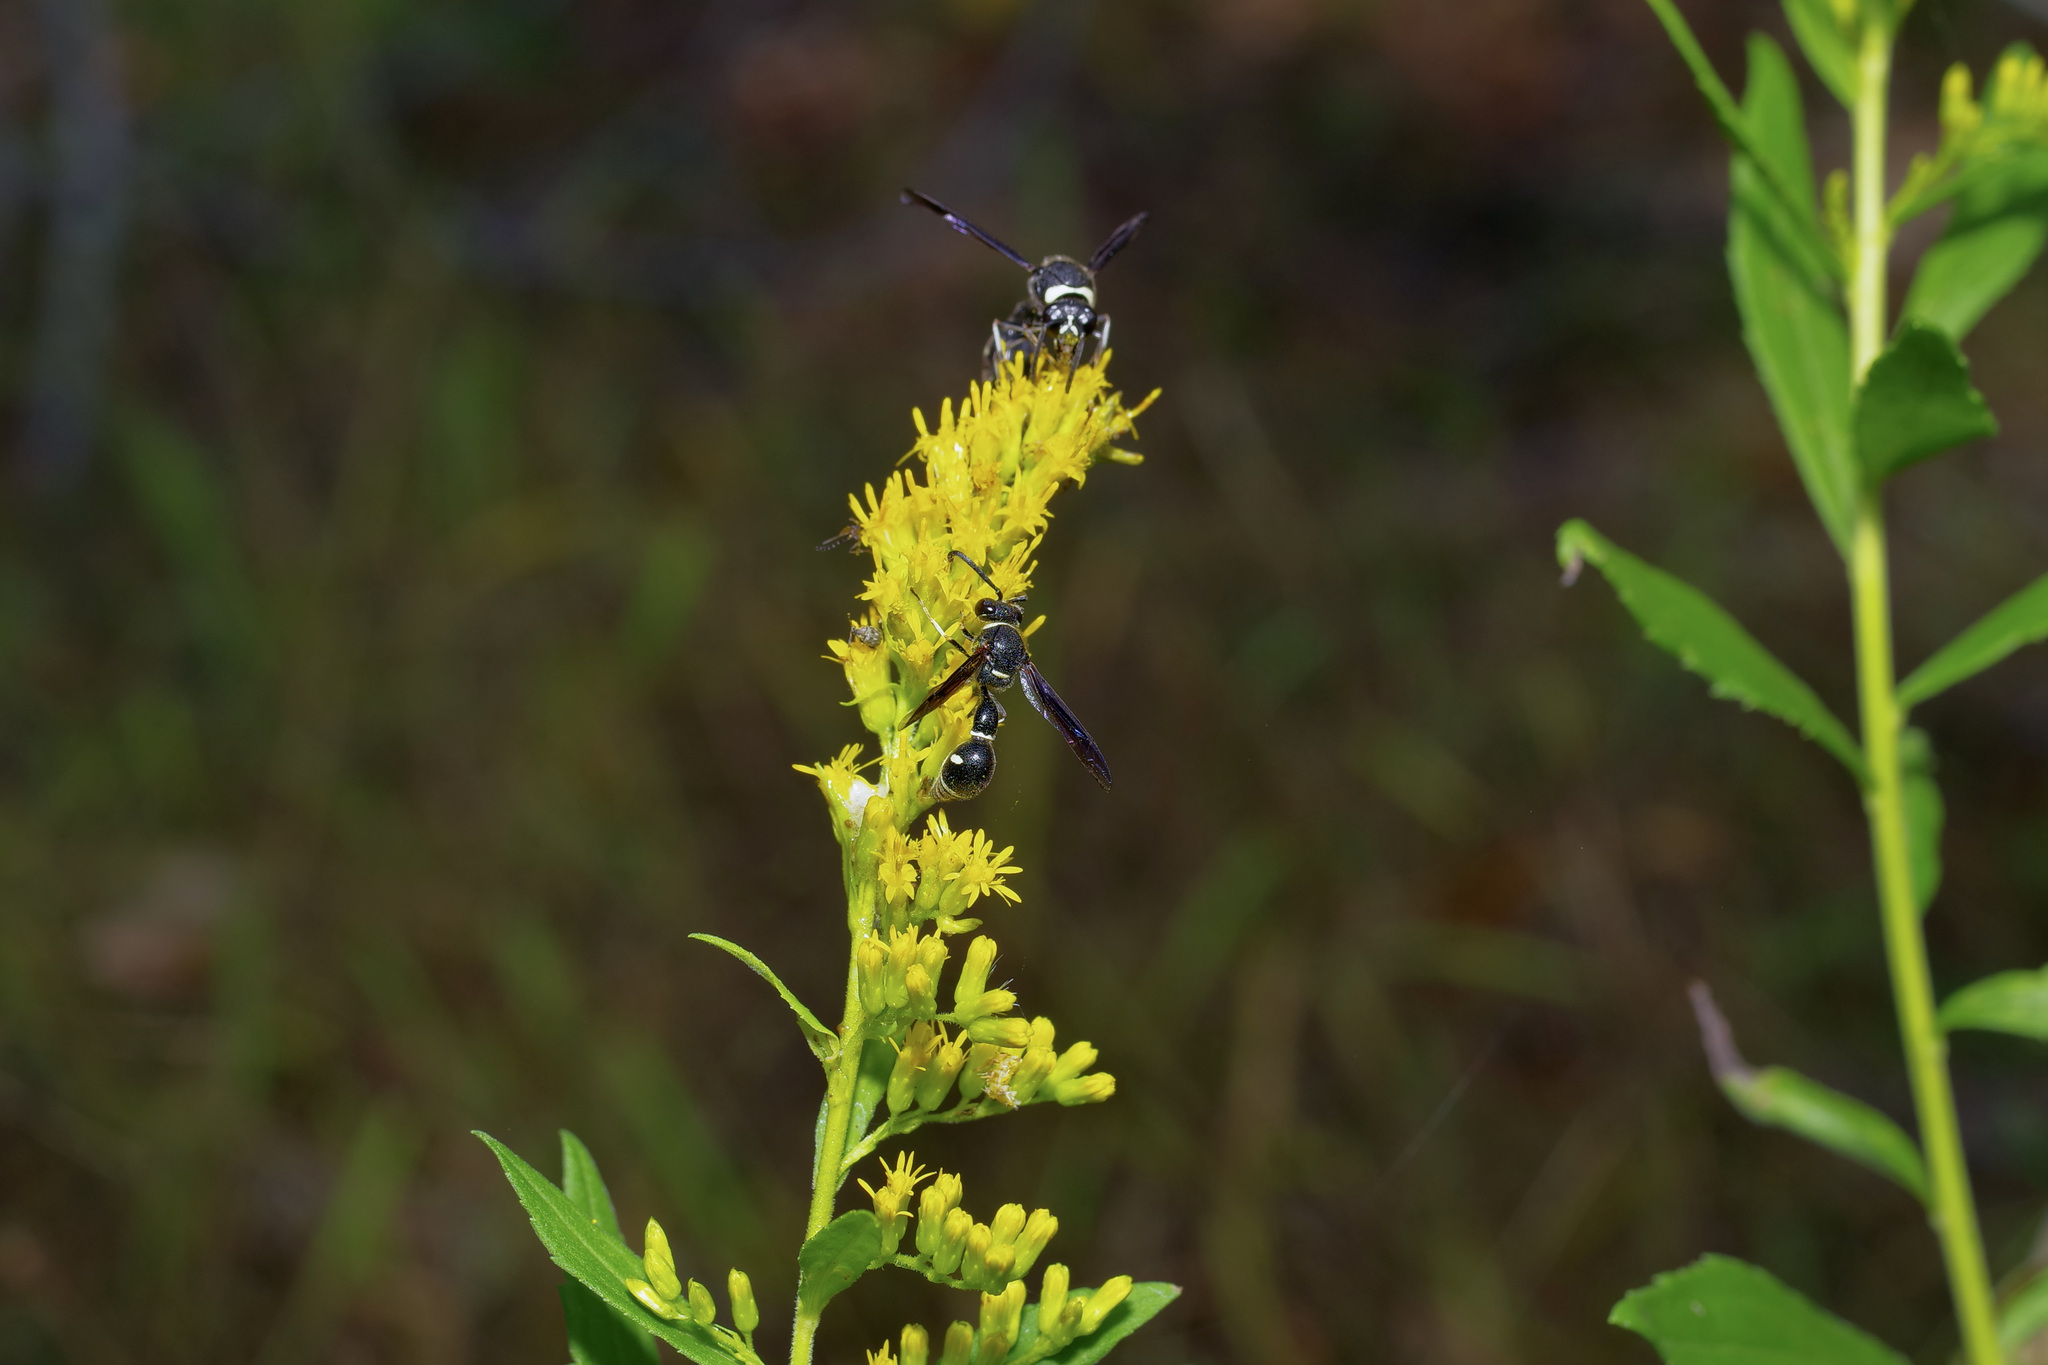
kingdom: Animalia
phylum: Arthropoda
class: Insecta
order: Hymenoptera
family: Vespidae
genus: Eumenes
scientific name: Eumenes fraternus
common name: Fraternal potter wasp
